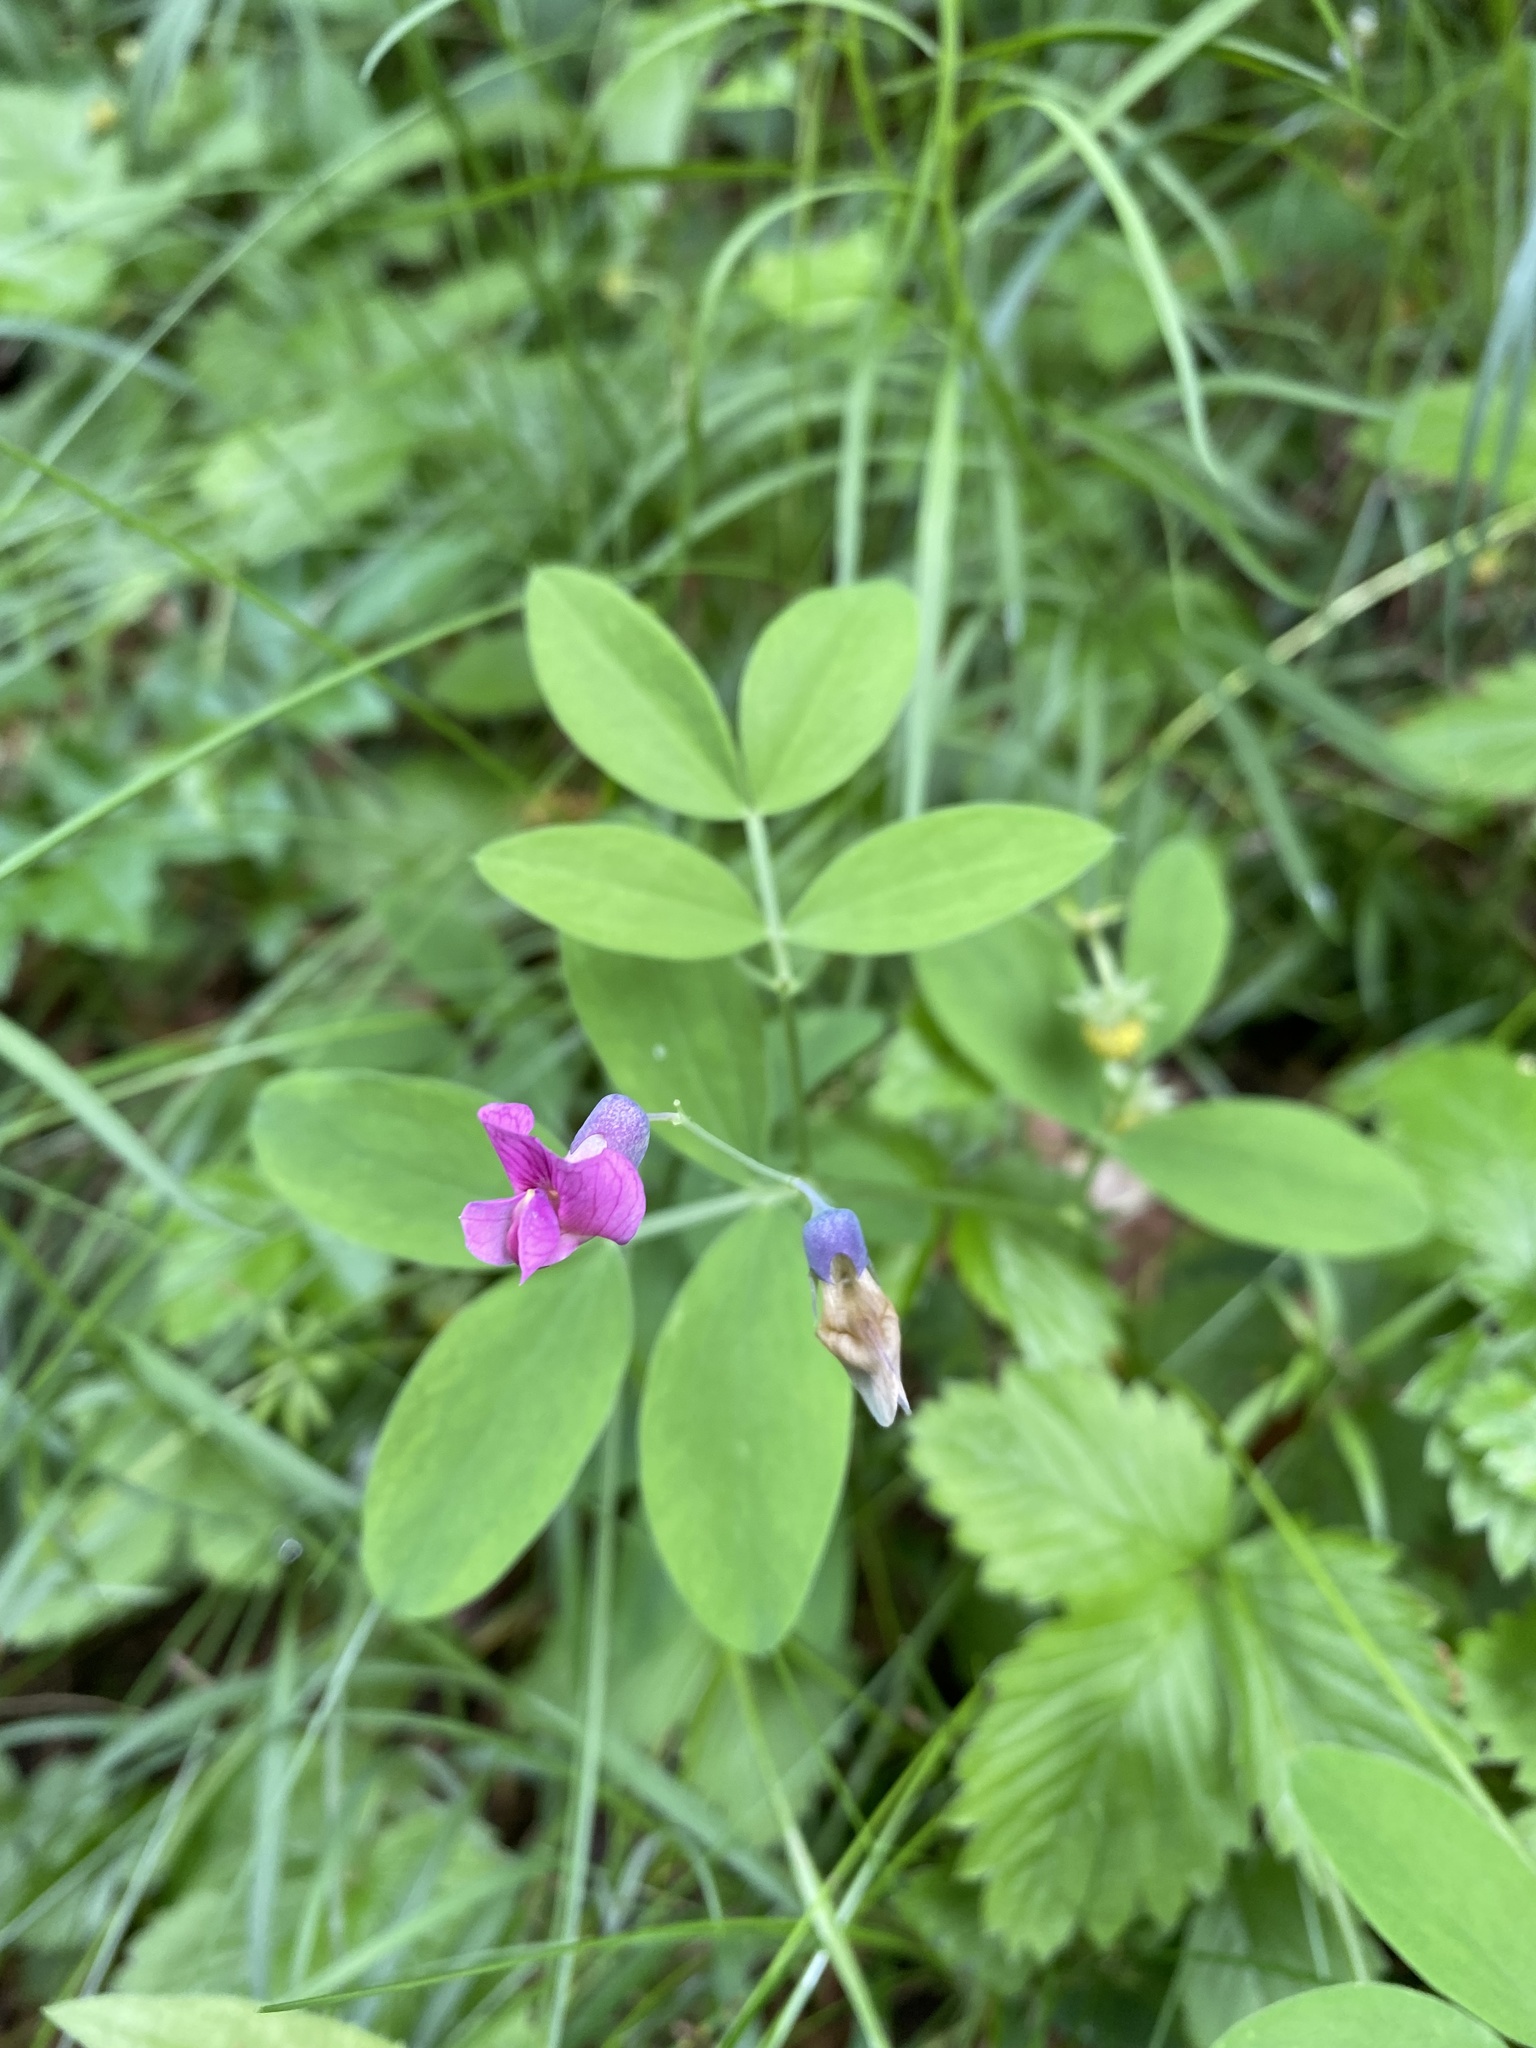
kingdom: Plantae
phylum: Tracheophyta
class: Magnoliopsida
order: Fabales
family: Fabaceae
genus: Lathyrus
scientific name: Lathyrus linifolius
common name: Bitter-vetch
